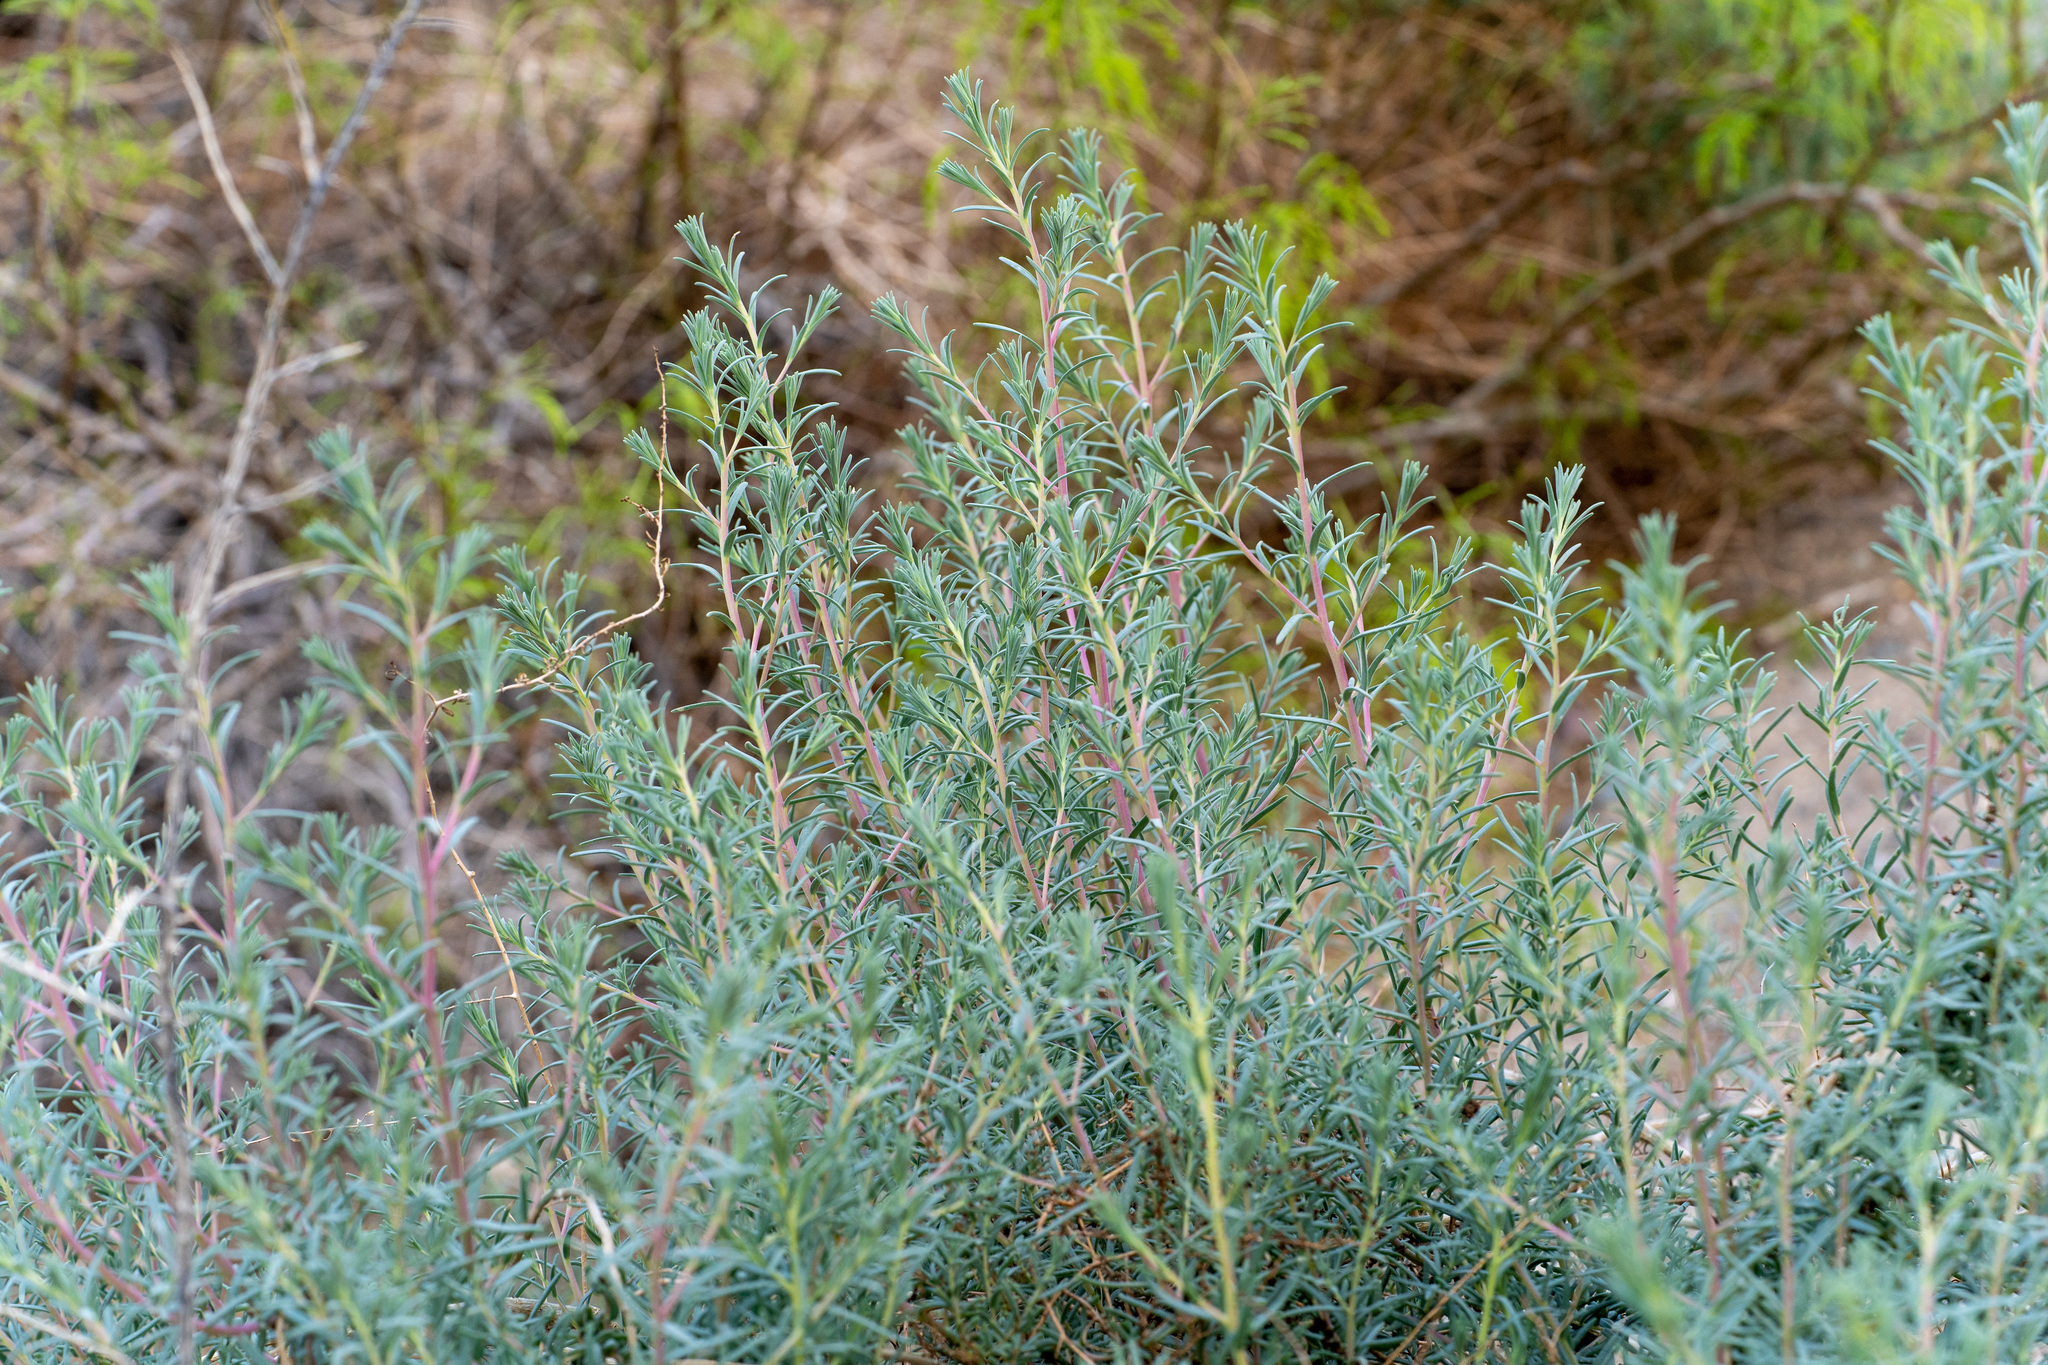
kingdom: Plantae
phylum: Tracheophyta
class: Magnoliopsida
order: Caryophyllales
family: Amaranthaceae
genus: Suaeda
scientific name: Suaeda nigra
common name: Bush seepweed
